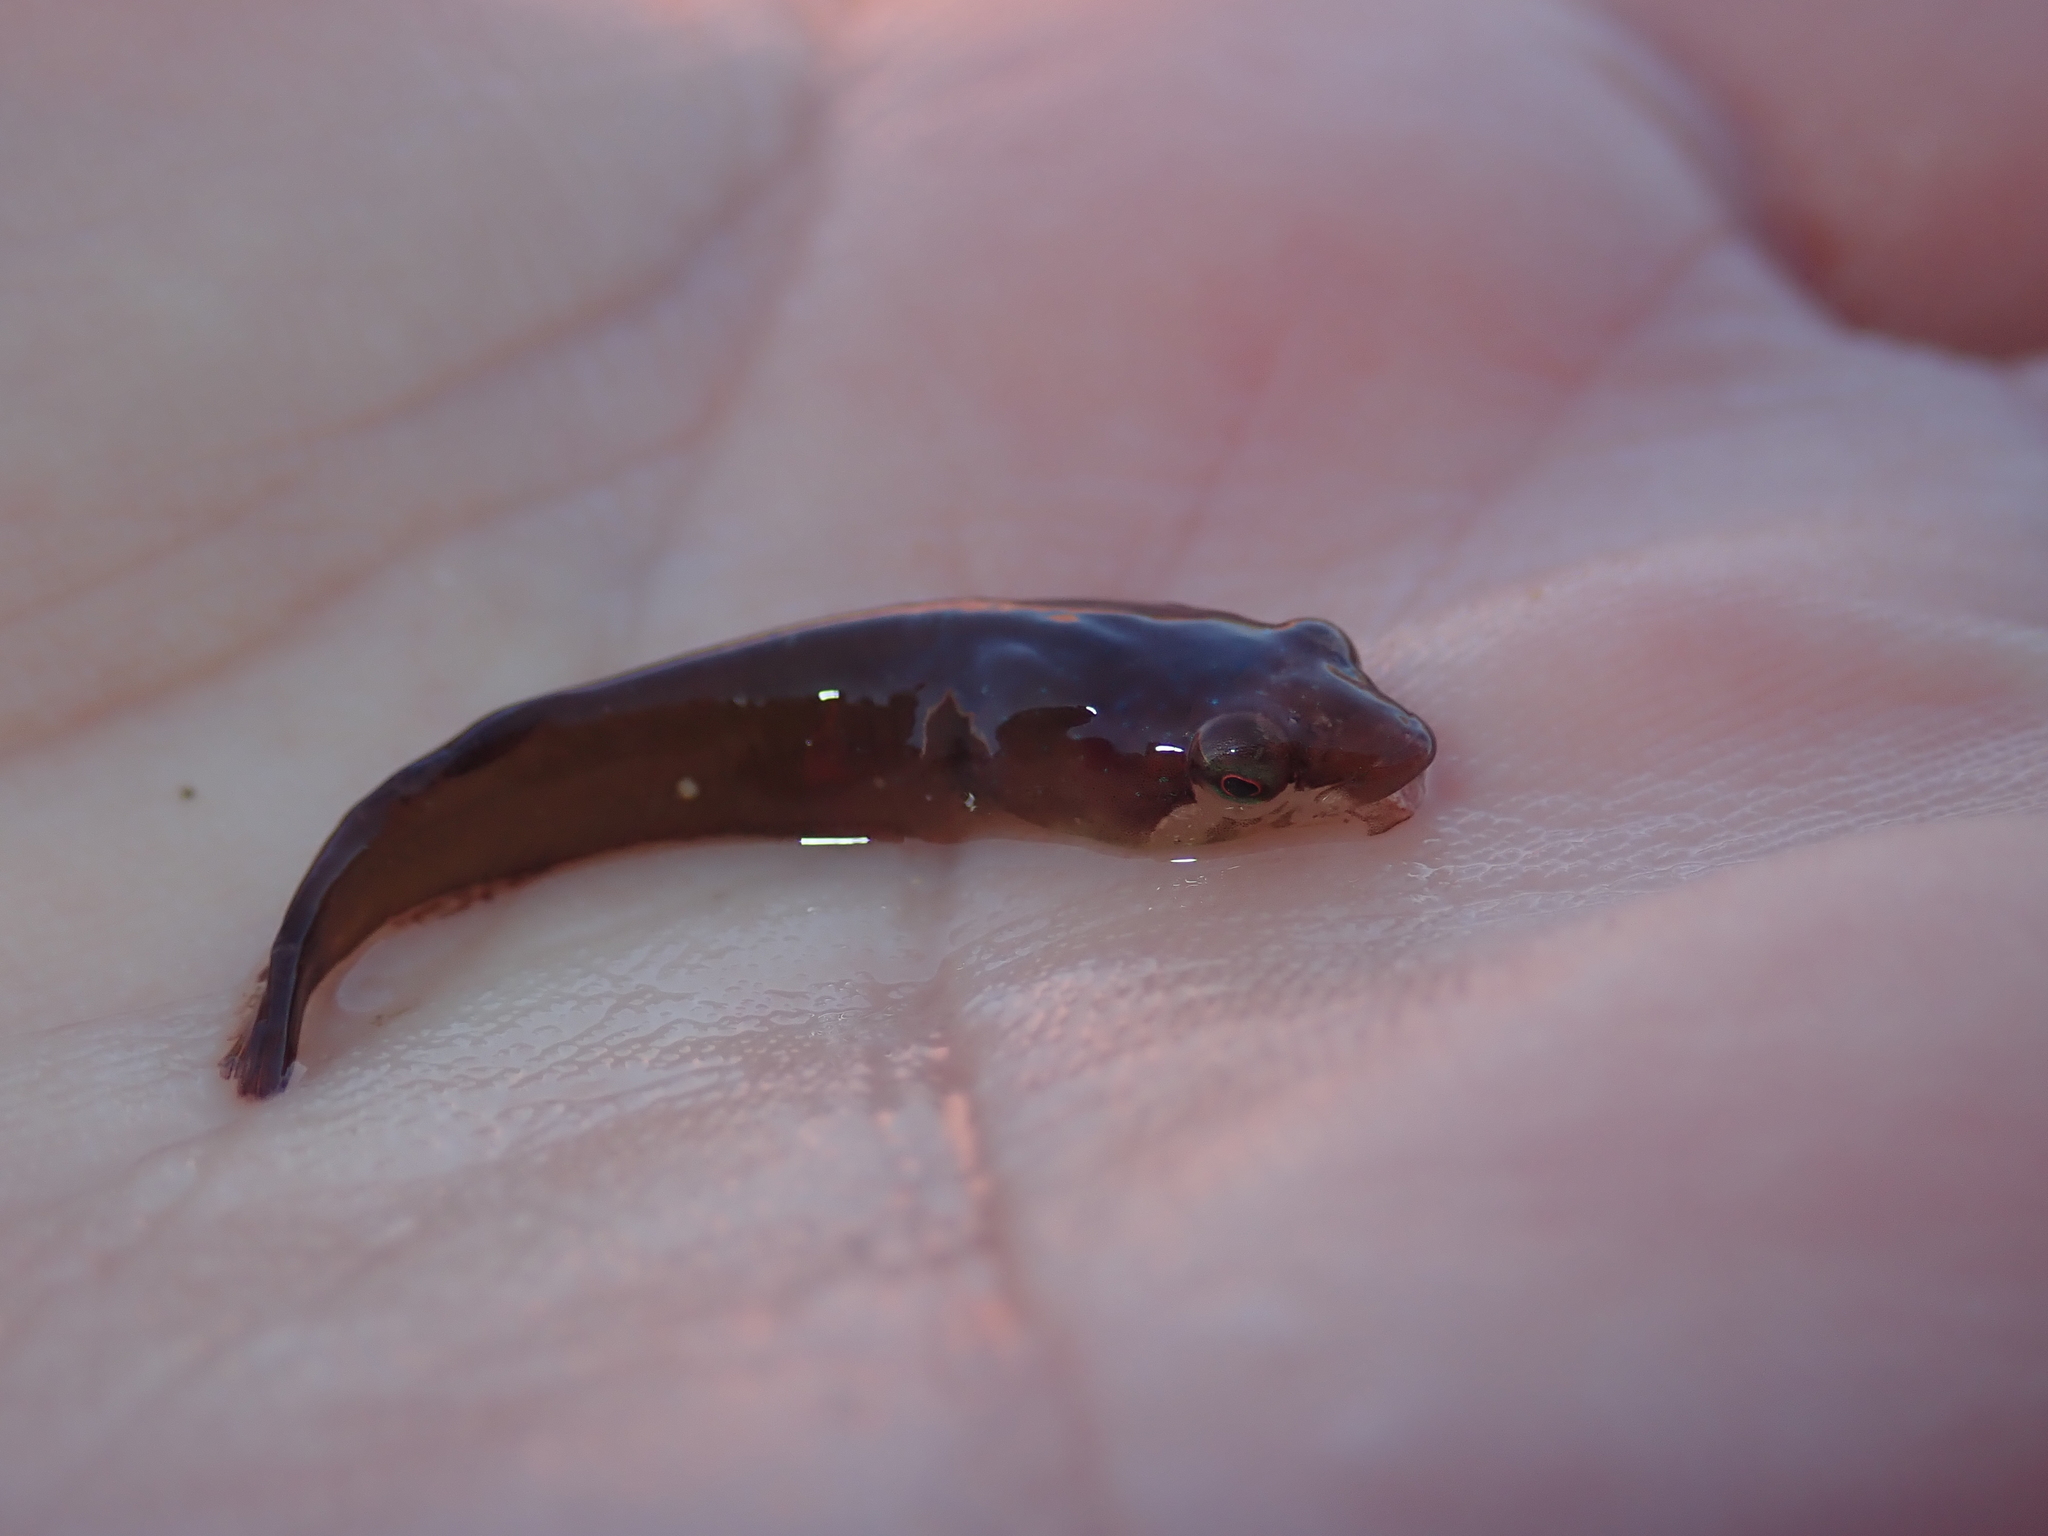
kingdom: Animalia
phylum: Chordata
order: Gobiesociformes
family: Gobiesocidae
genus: Apletodon
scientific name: Apletodon dentatus
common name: Small-headed clingfish
